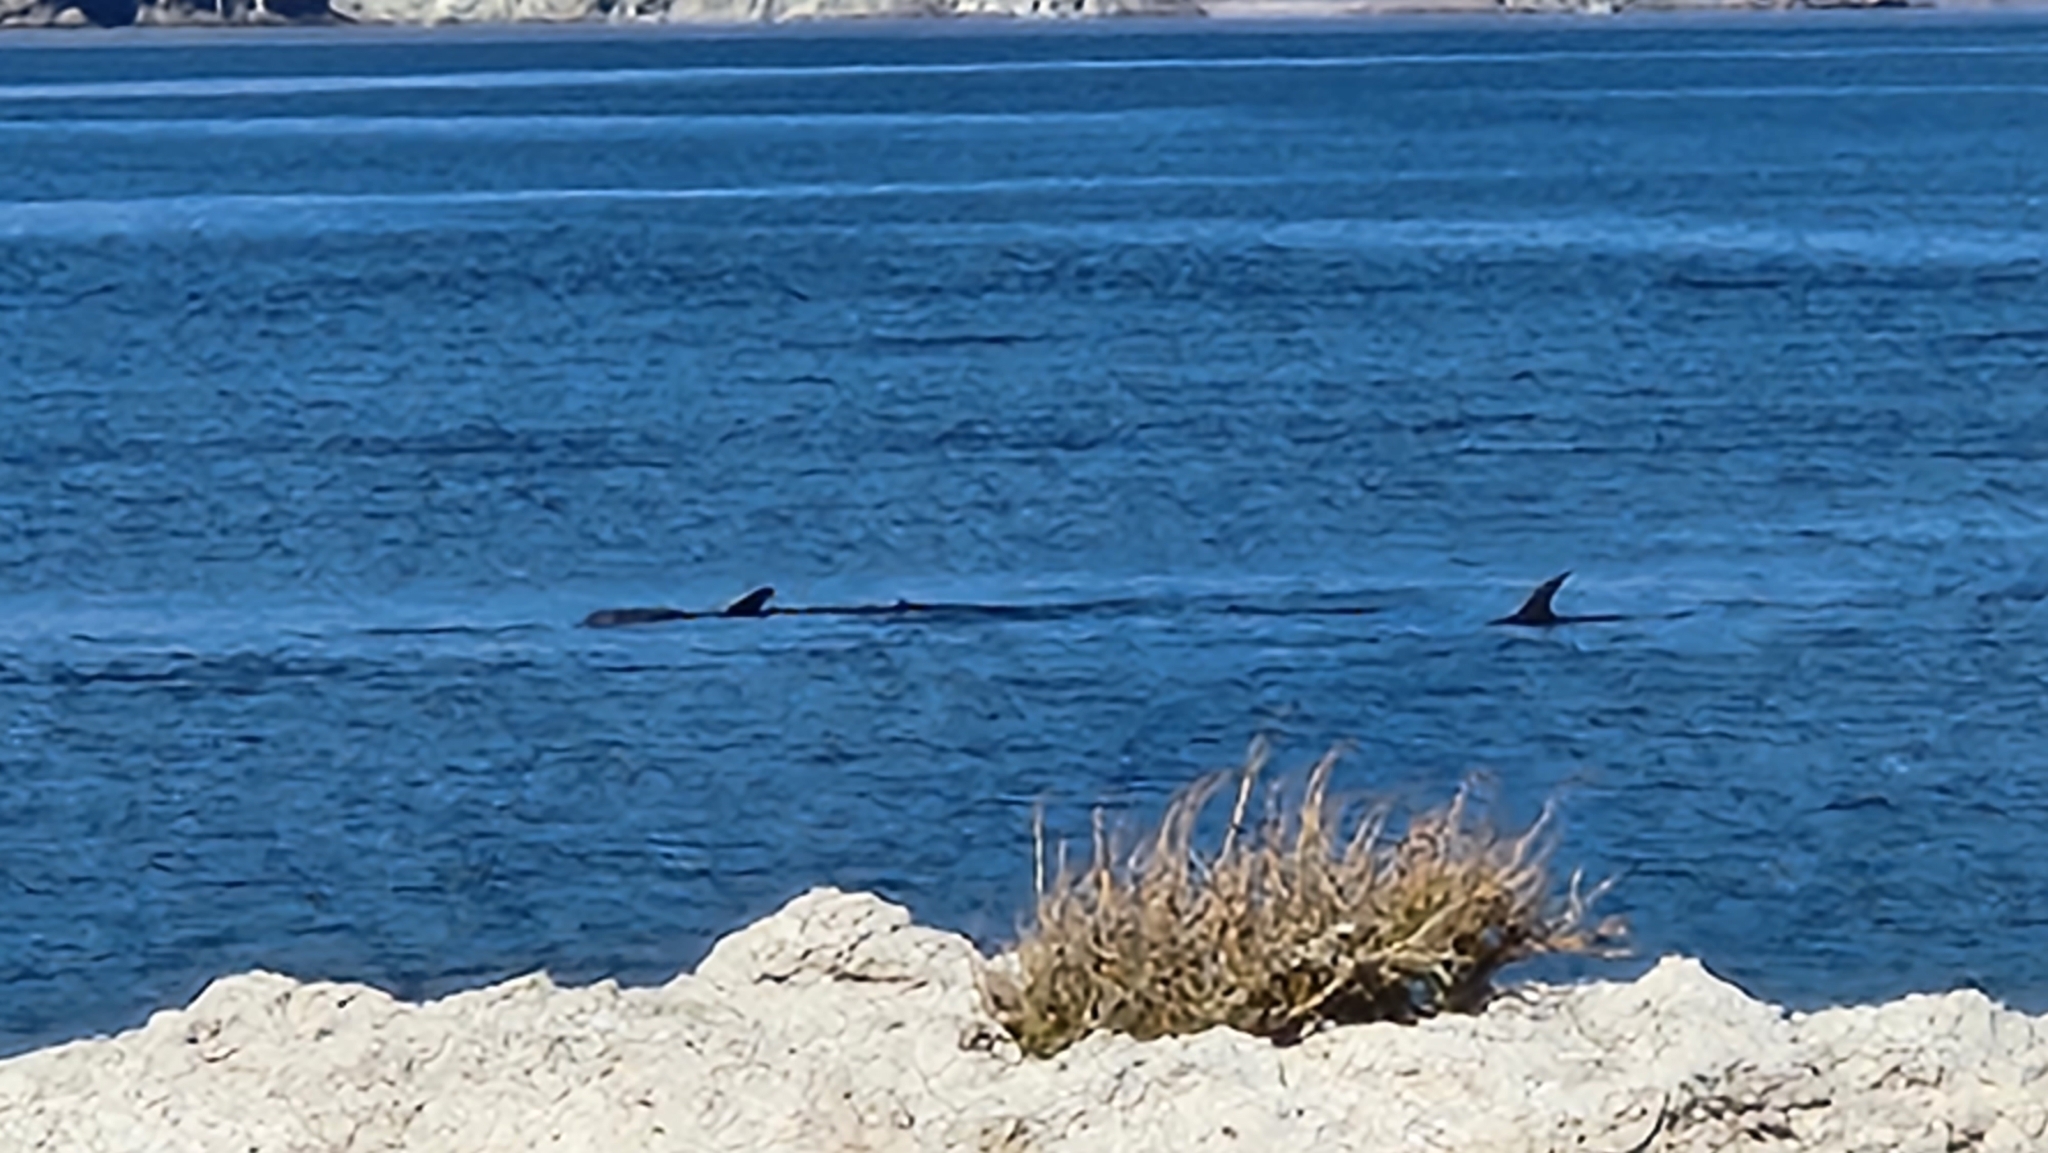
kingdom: Animalia
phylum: Chordata
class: Mammalia
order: Cetacea
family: Delphinidae
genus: Tursiops
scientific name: Tursiops truncatus
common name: Bottlenose dolphin
